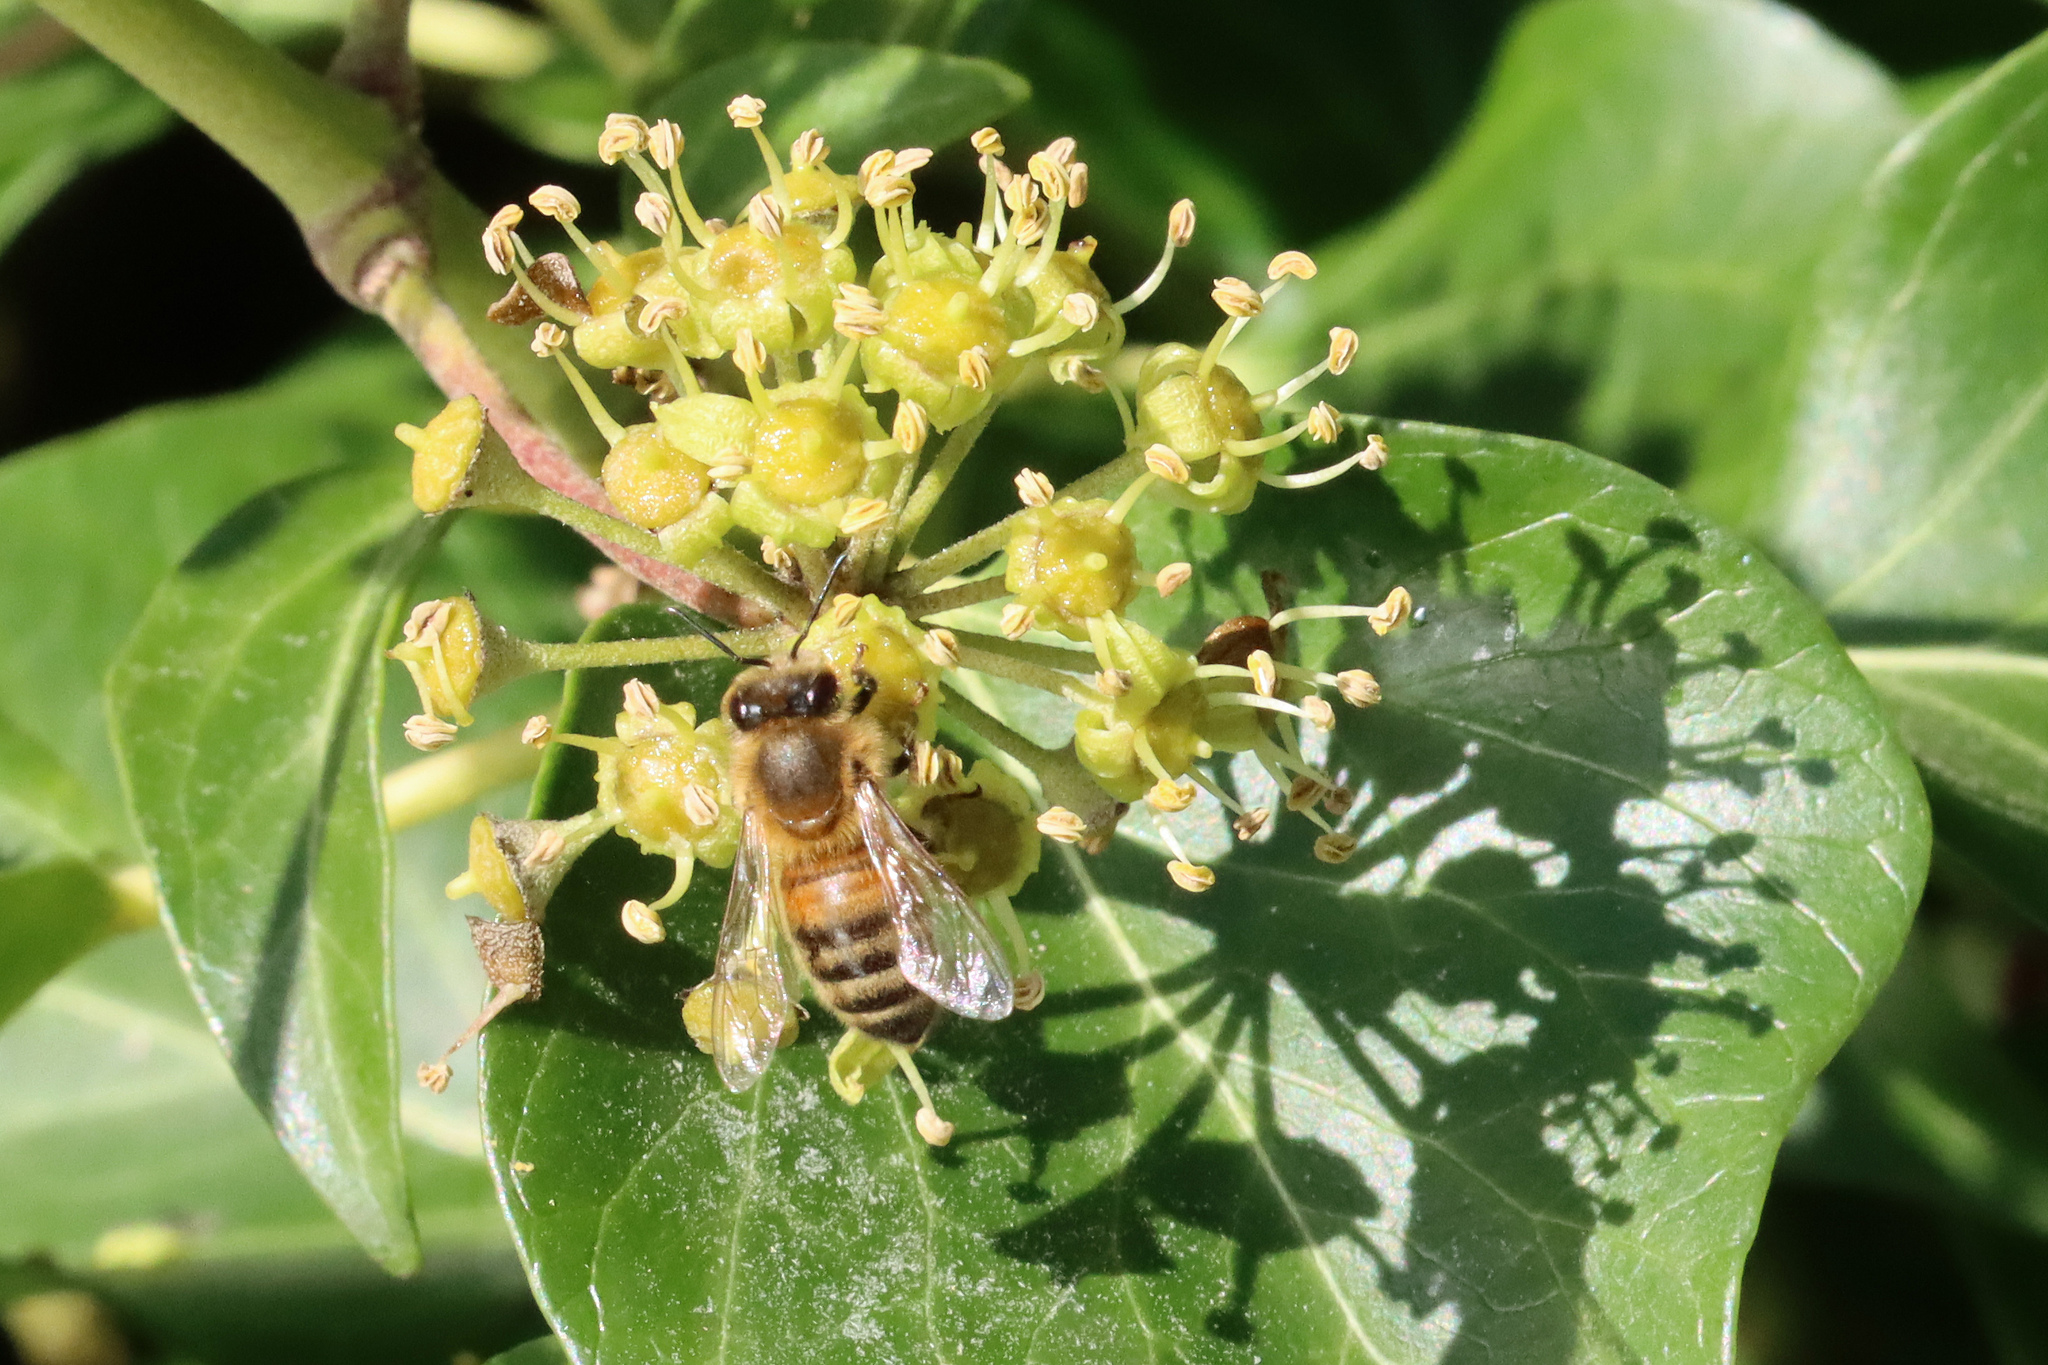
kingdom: Animalia
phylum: Arthropoda
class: Insecta
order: Hymenoptera
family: Apidae
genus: Apis
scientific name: Apis mellifera
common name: Honey bee
